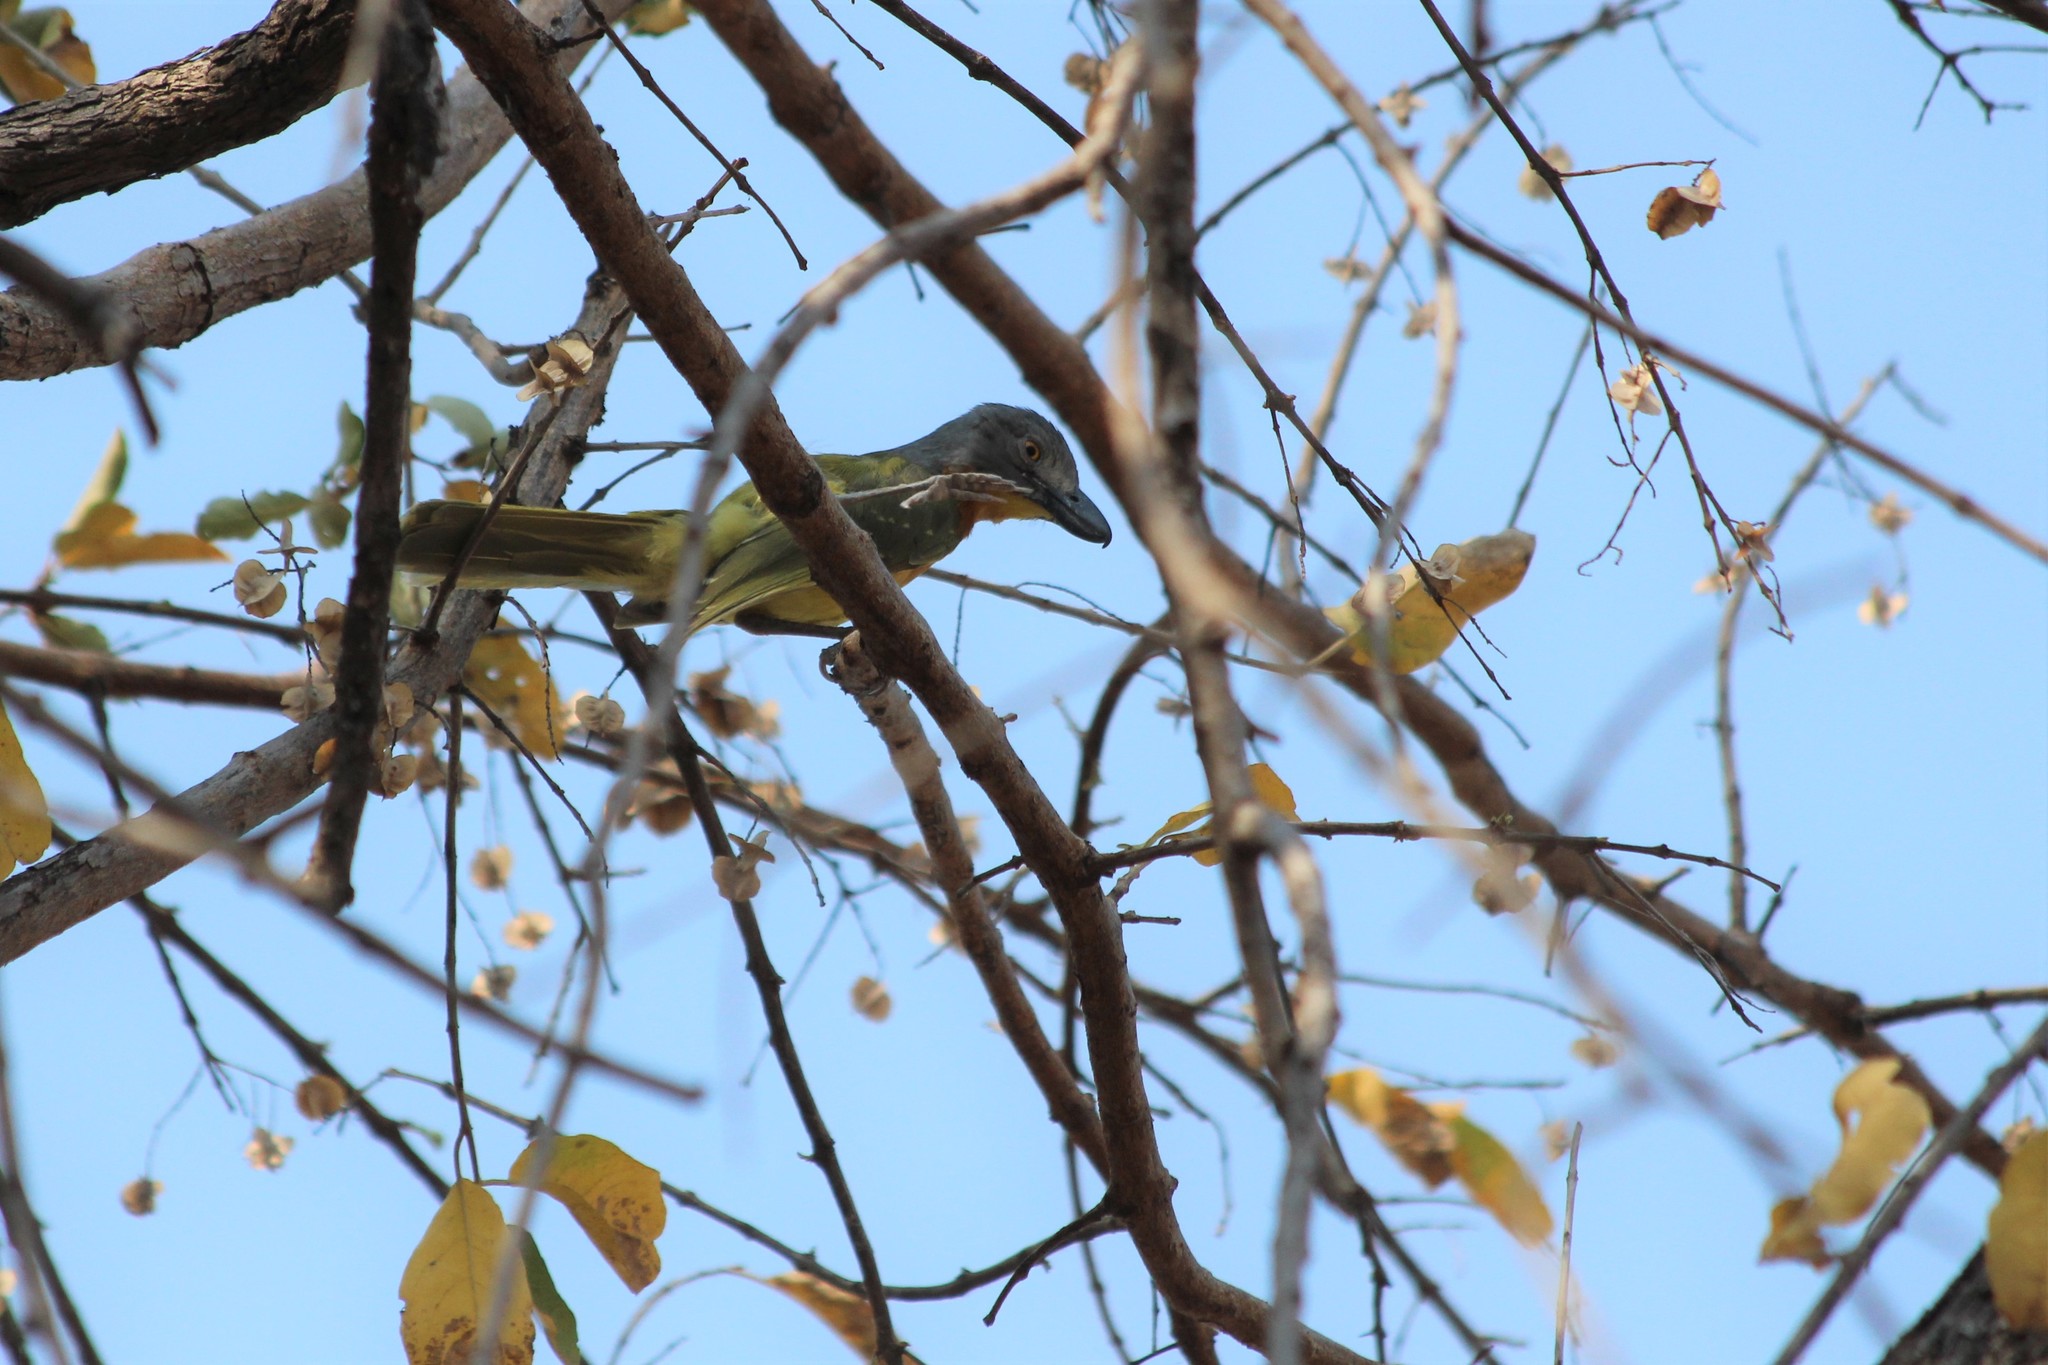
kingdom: Animalia
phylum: Chordata
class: Aves
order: Passeriformes
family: Malaconotidae
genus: Malaconotus
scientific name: Malaconotus blanchoti
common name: Grey-headed bushshrike
